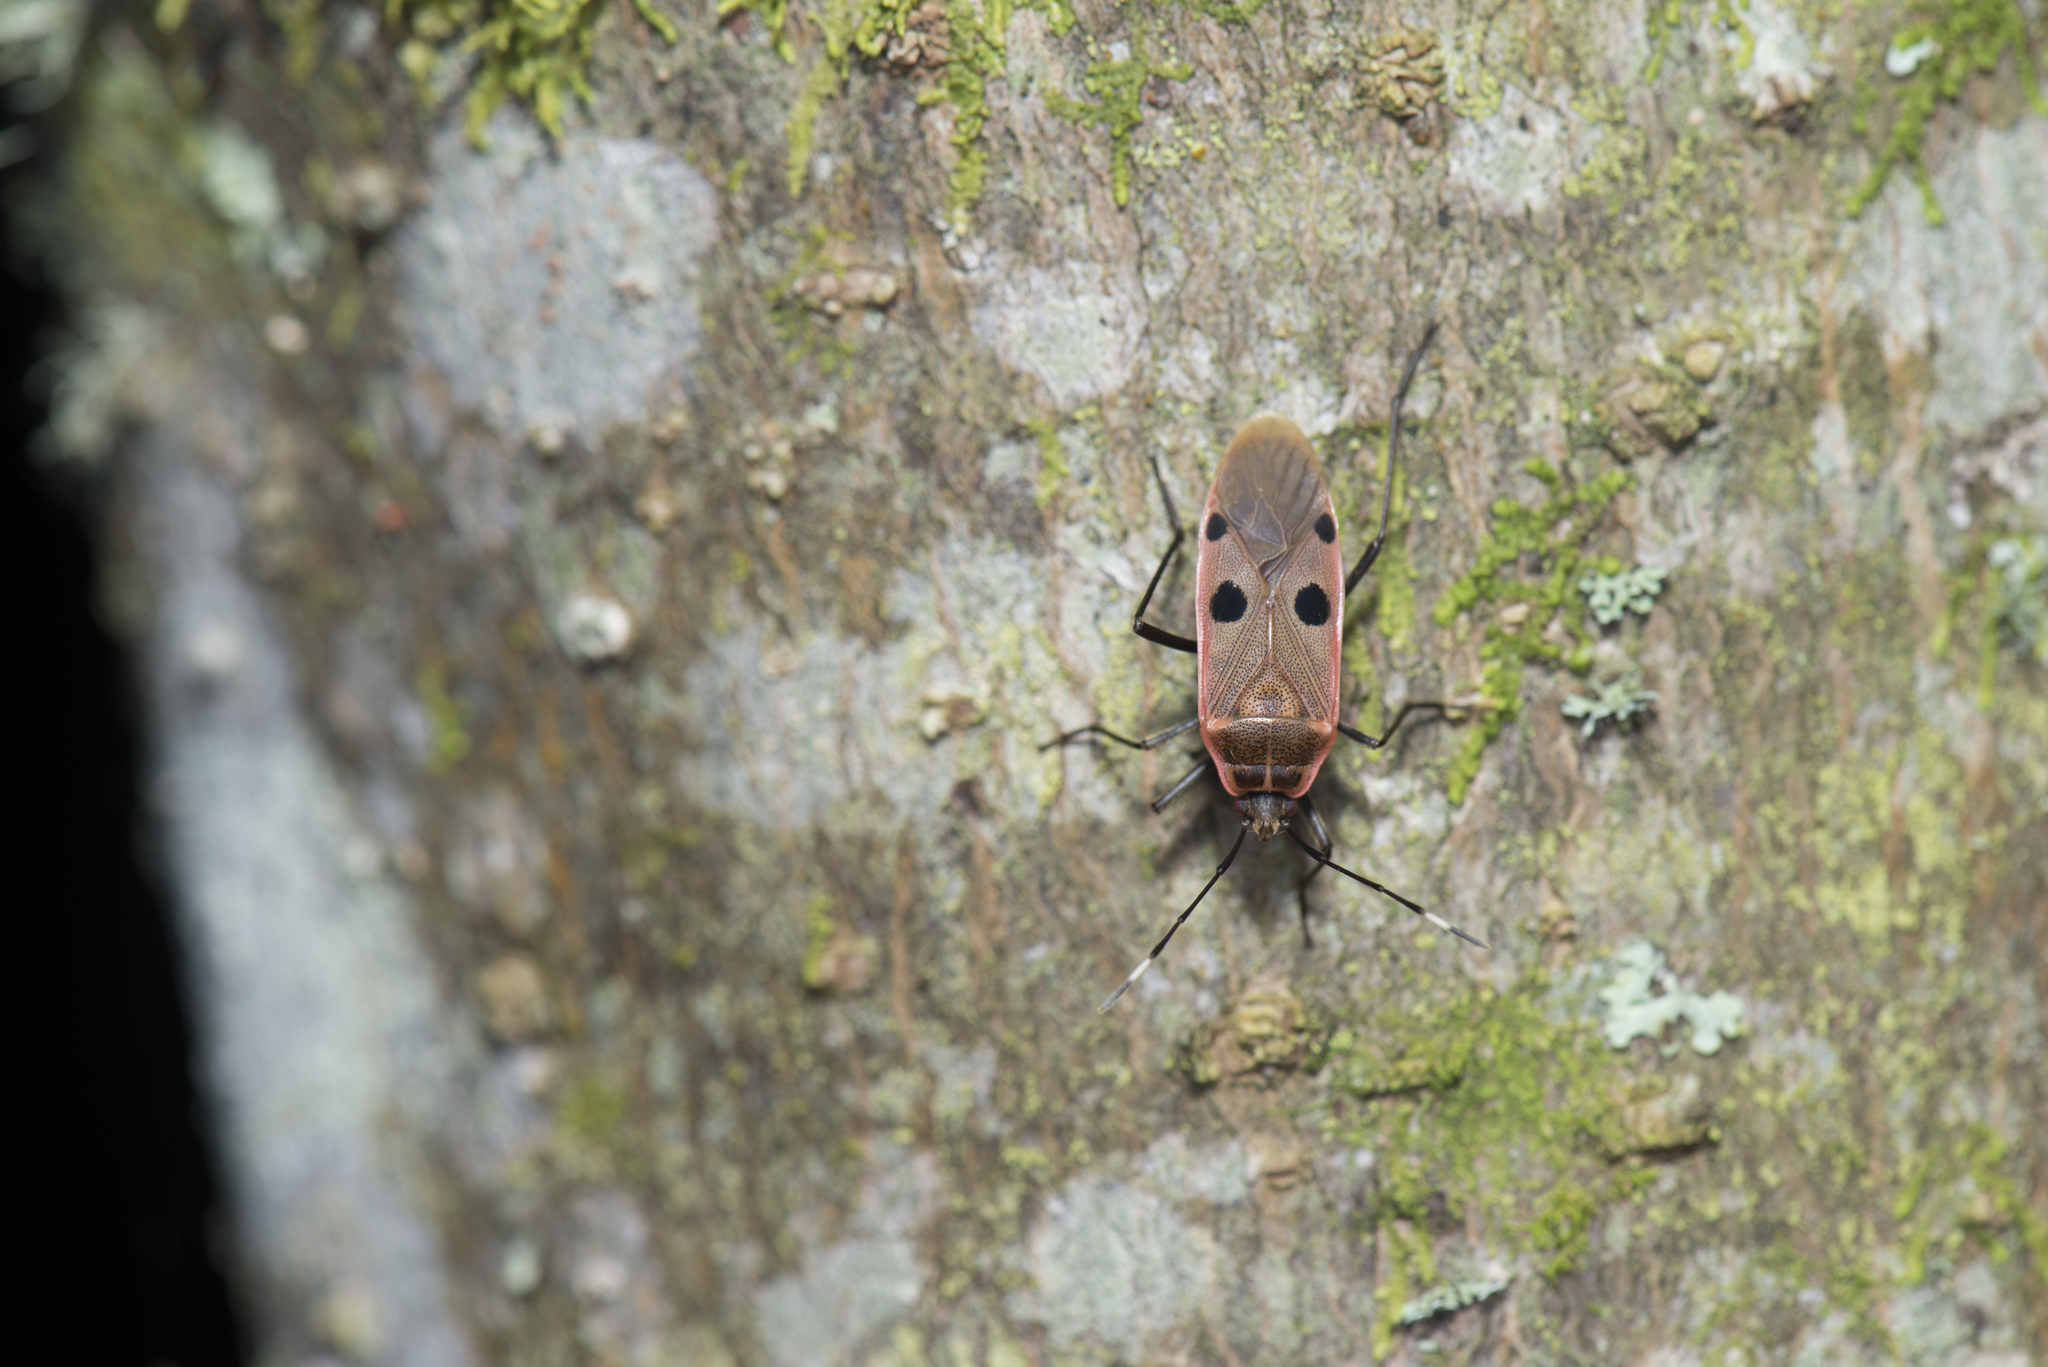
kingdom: Animalia
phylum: Arthropoda
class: Insecta
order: Hemiptera
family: Largidae
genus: Physopelta
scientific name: Physopelta quadriguttata
